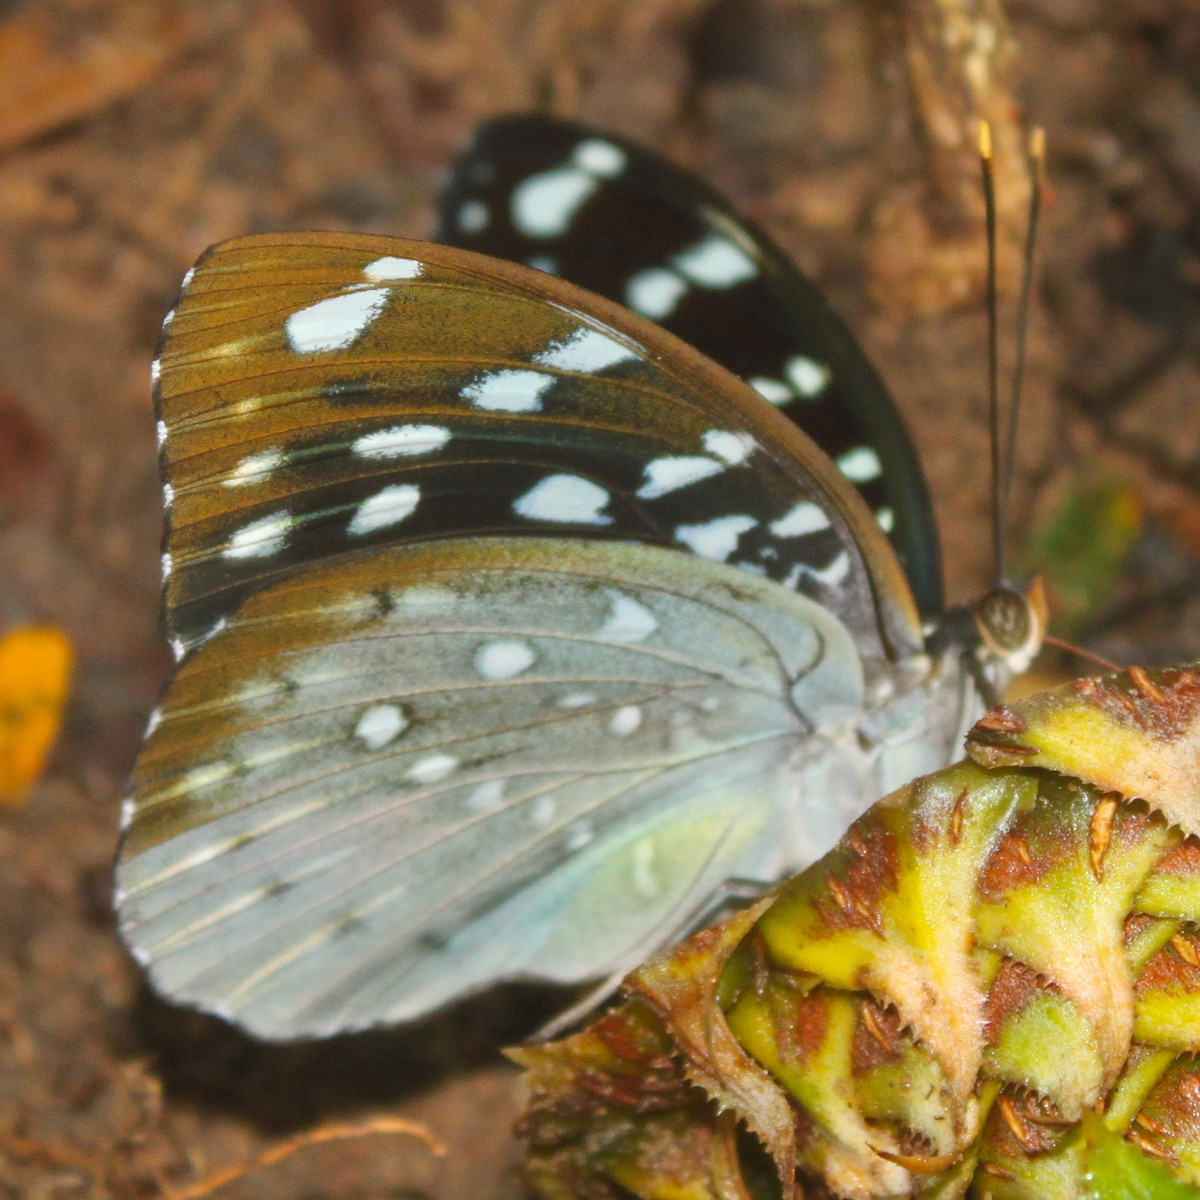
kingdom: Animalia
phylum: Arthropoda
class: Insecta
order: Lepidoptera
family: Nymphalidae
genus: Lexias
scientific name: Lexias
